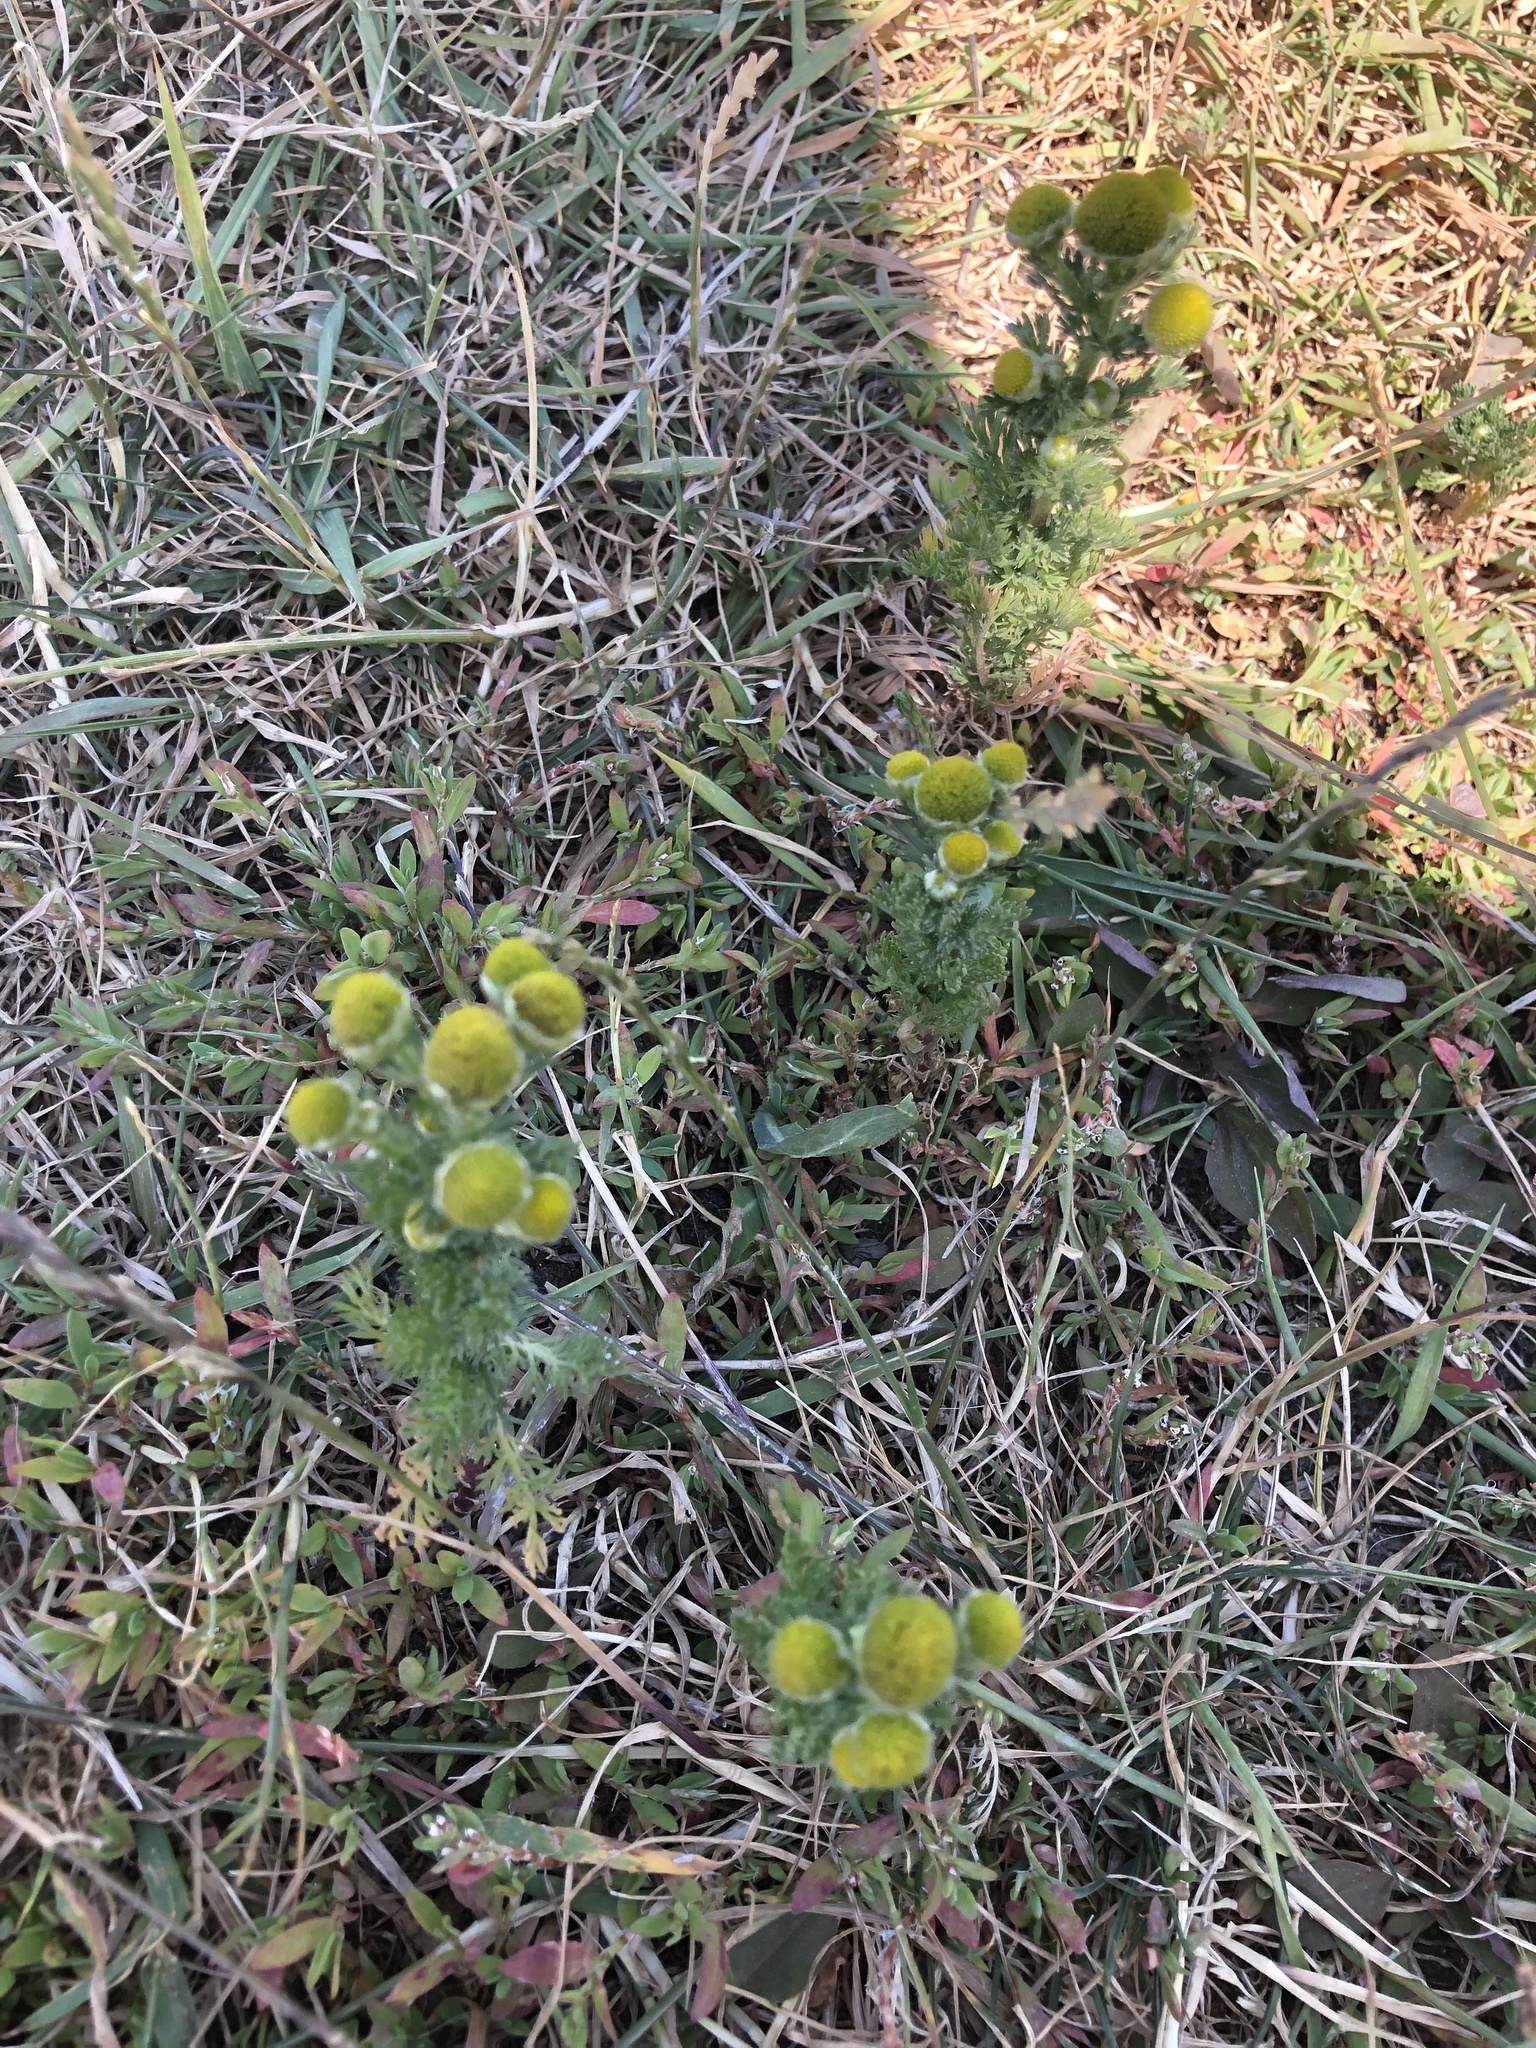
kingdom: Plantae
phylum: Tracheophyta
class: Magnoliopsida
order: Asterales
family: Asteraceae
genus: Matricaria
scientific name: Matricaria discoidea
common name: Disc mayweed
